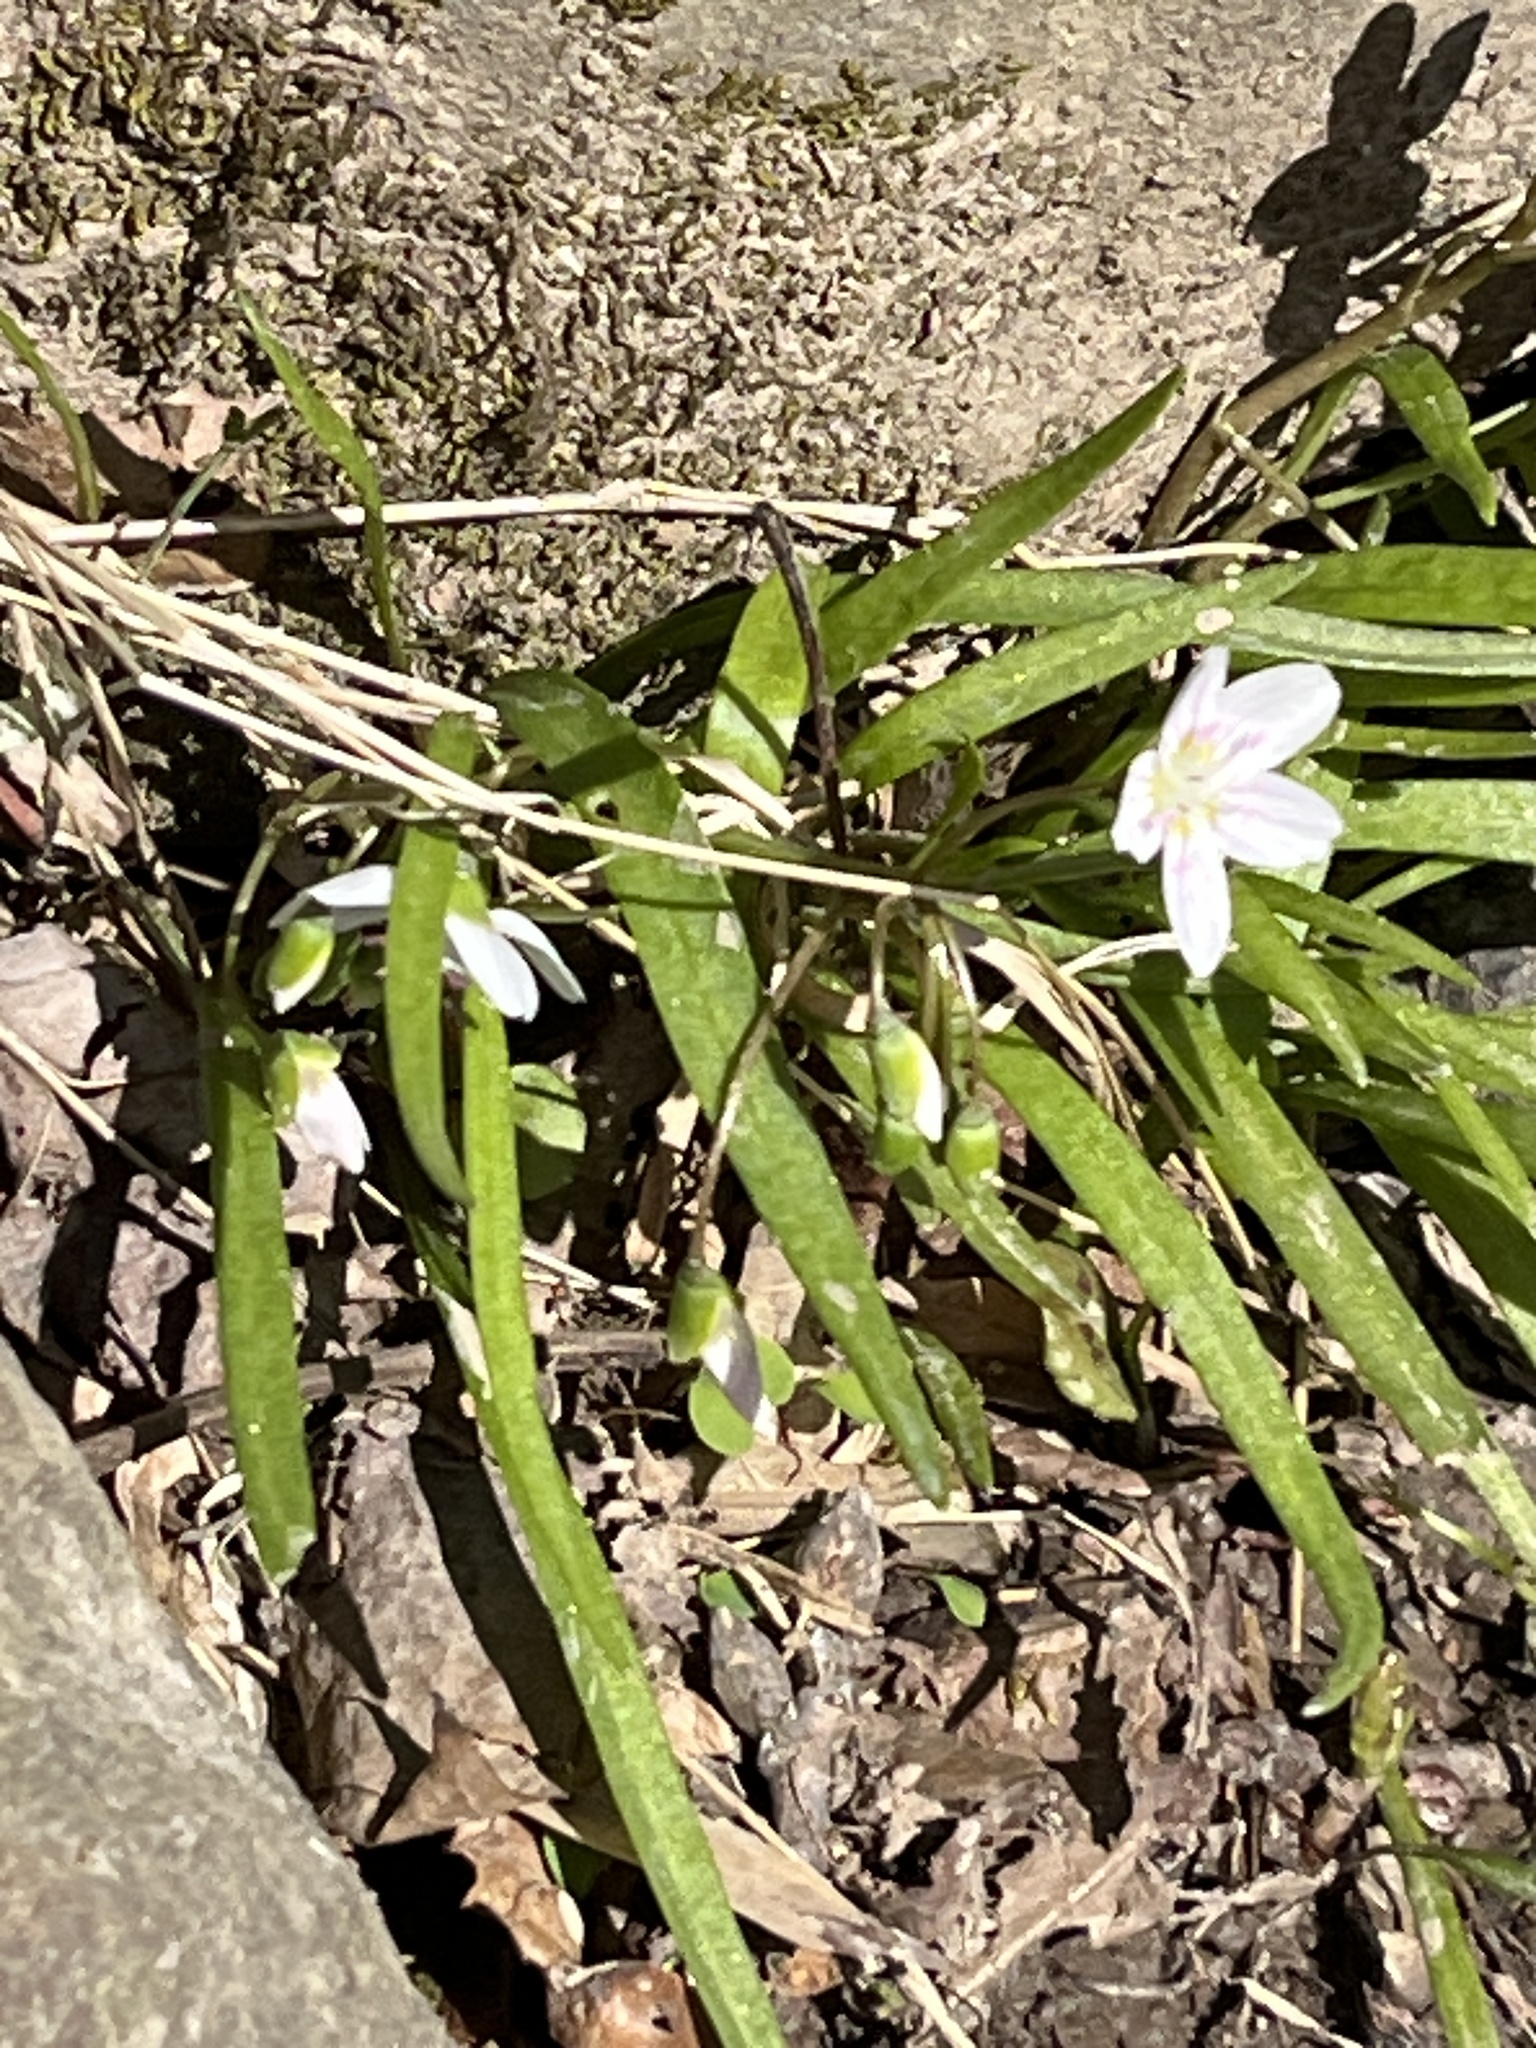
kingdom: Plantae
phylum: Tracheophyta
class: Magnoliopsida
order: Caryophyllales
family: Montiaceae
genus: Claytonia
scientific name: Claytonia virginica
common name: Virginia springbeauty
